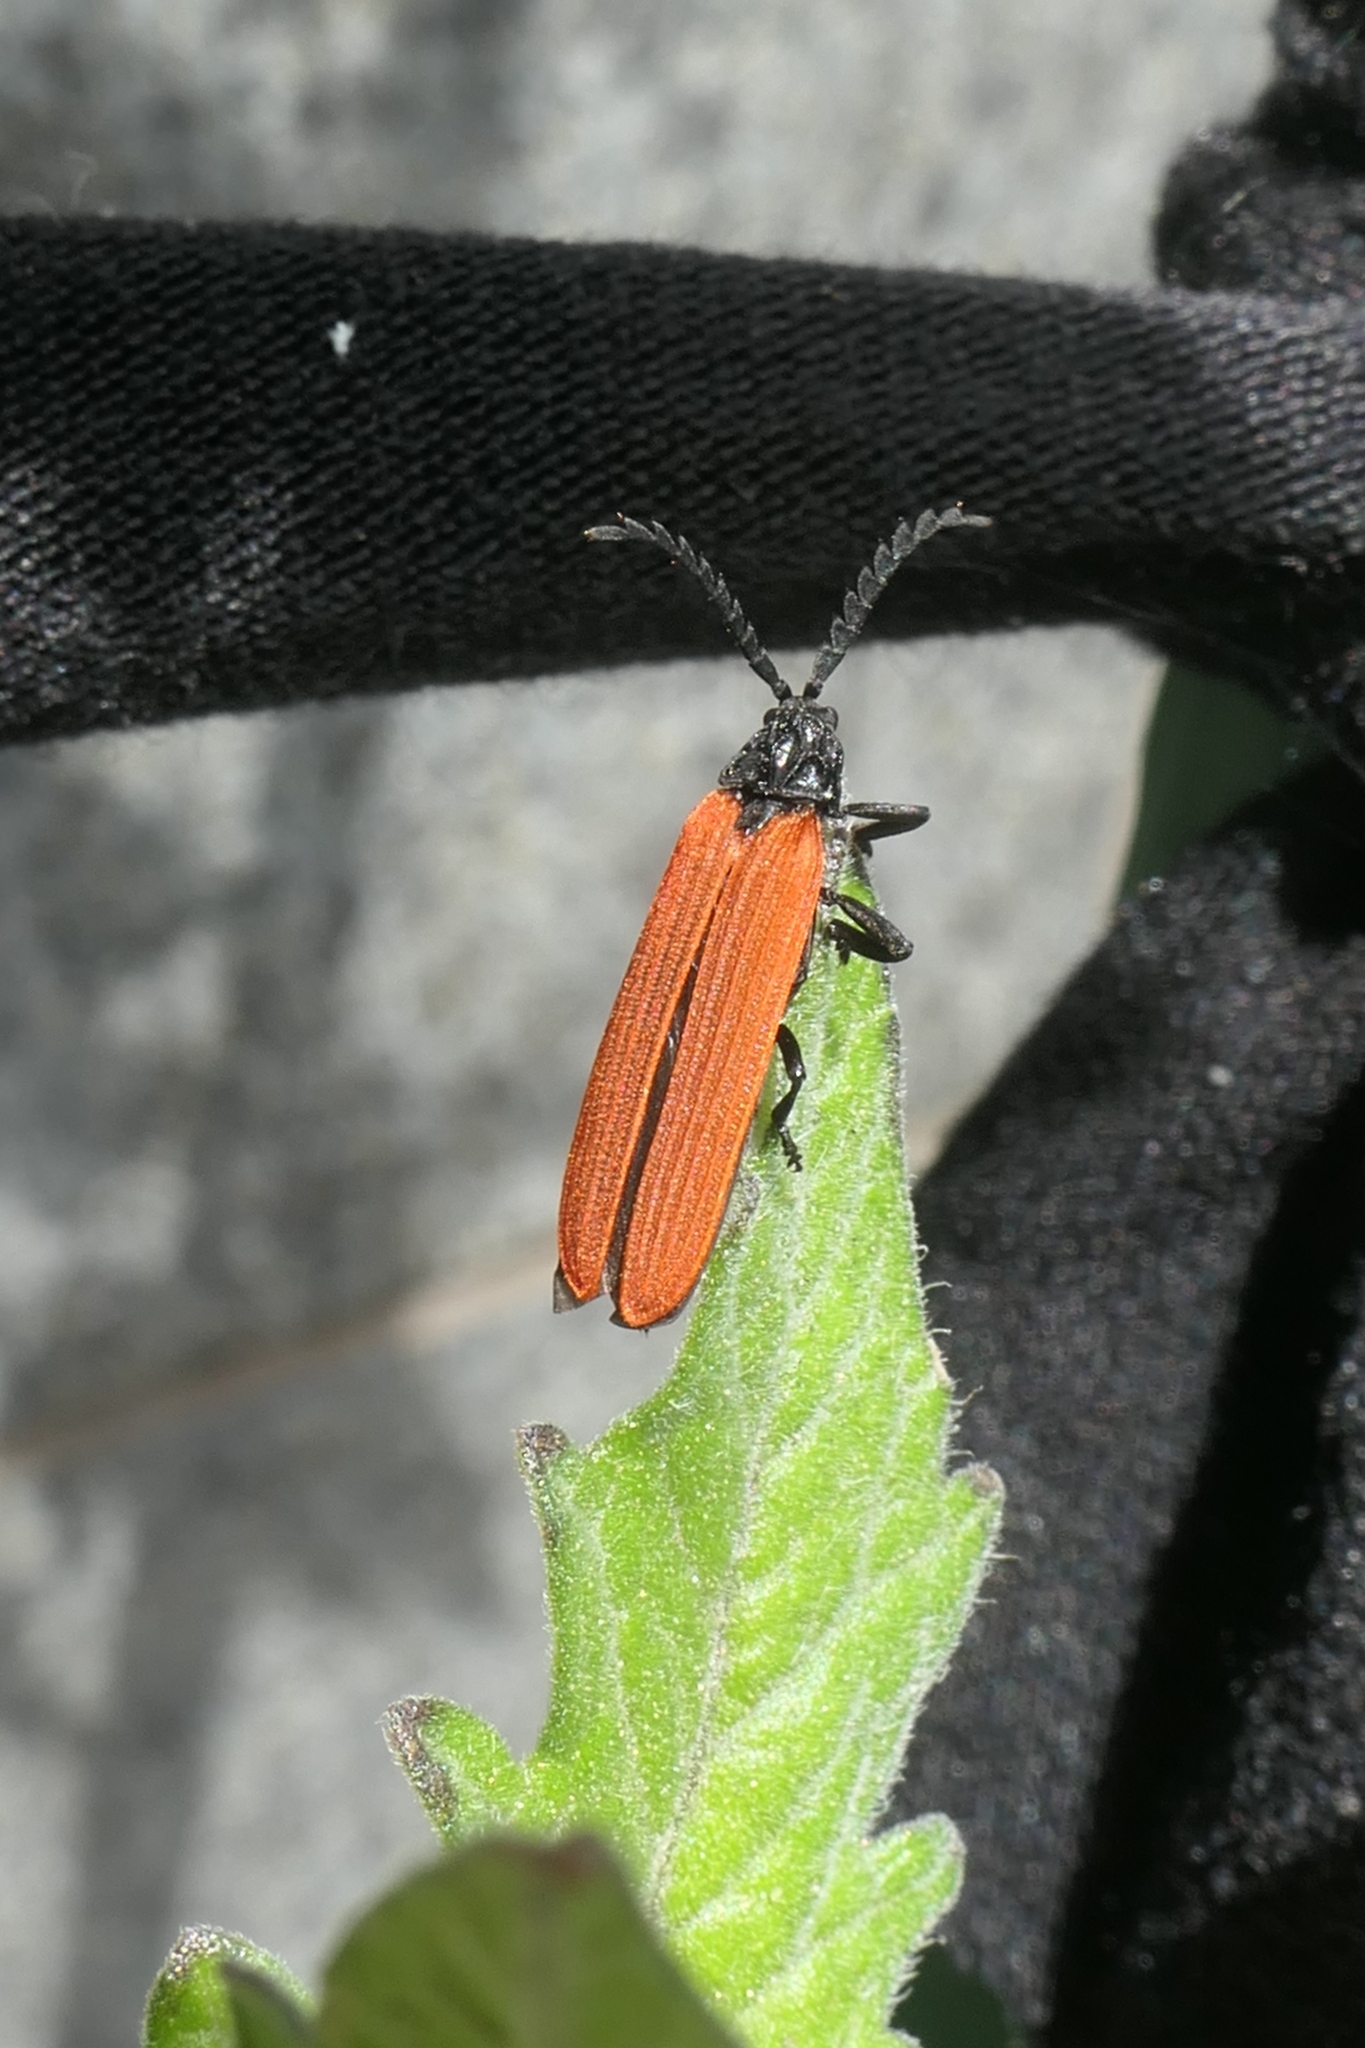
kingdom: Animalia
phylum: Arthropoda
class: Insecta
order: Coleoptera
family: Lycidae
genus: Porrostoma
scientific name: Porrostoma rufipenne
